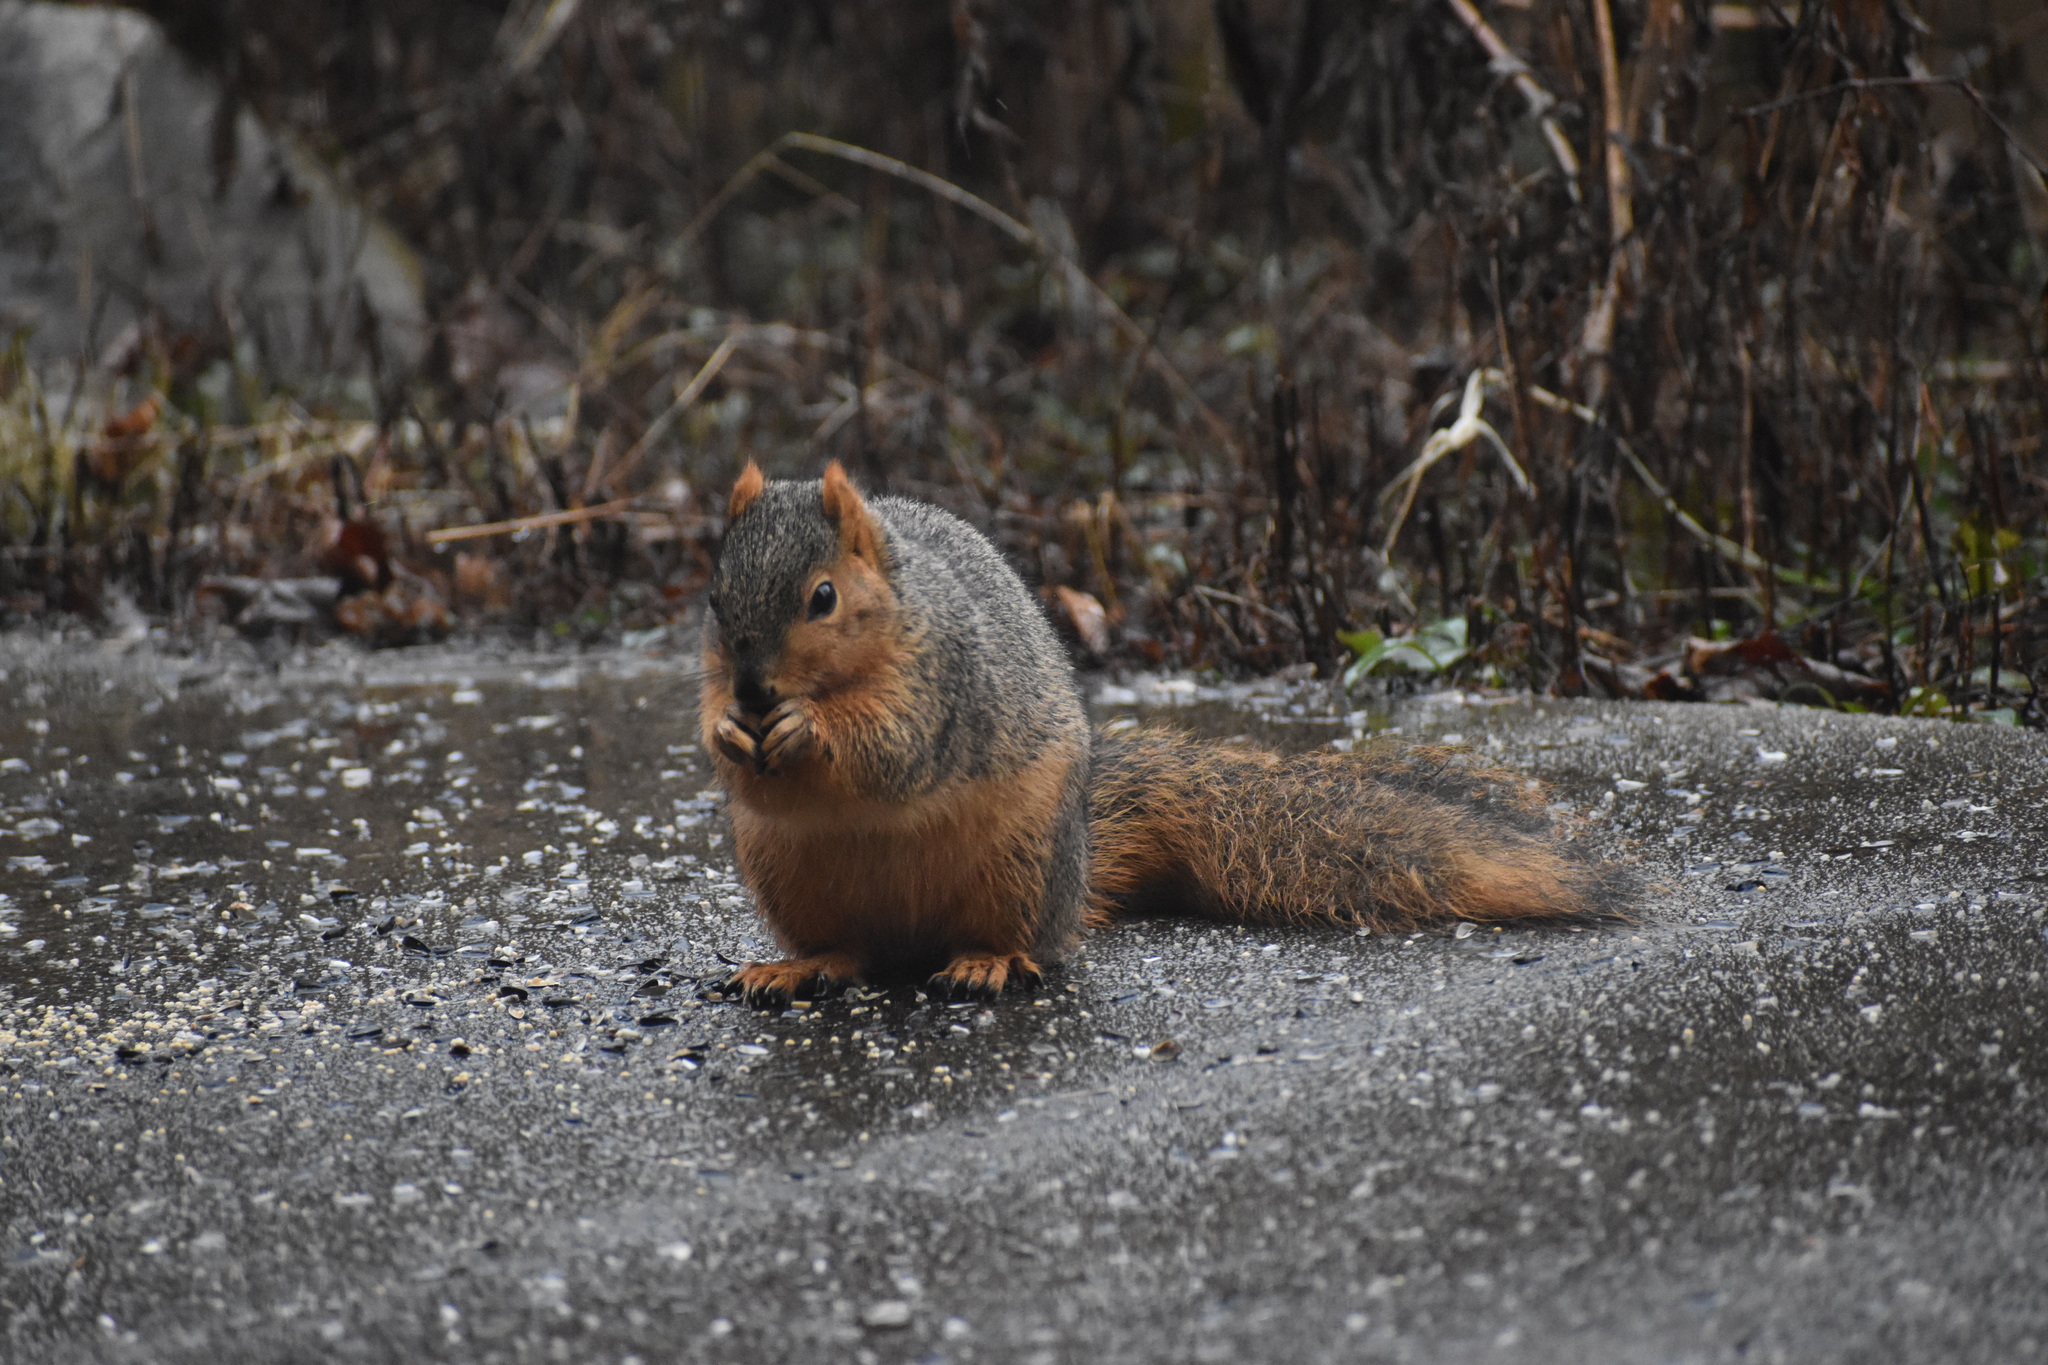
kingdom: Animalia
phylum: Chordata
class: Mammalia
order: Rodentia
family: Sciuridae
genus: Sciurus
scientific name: Sciurus niger
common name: Fox squirrel
